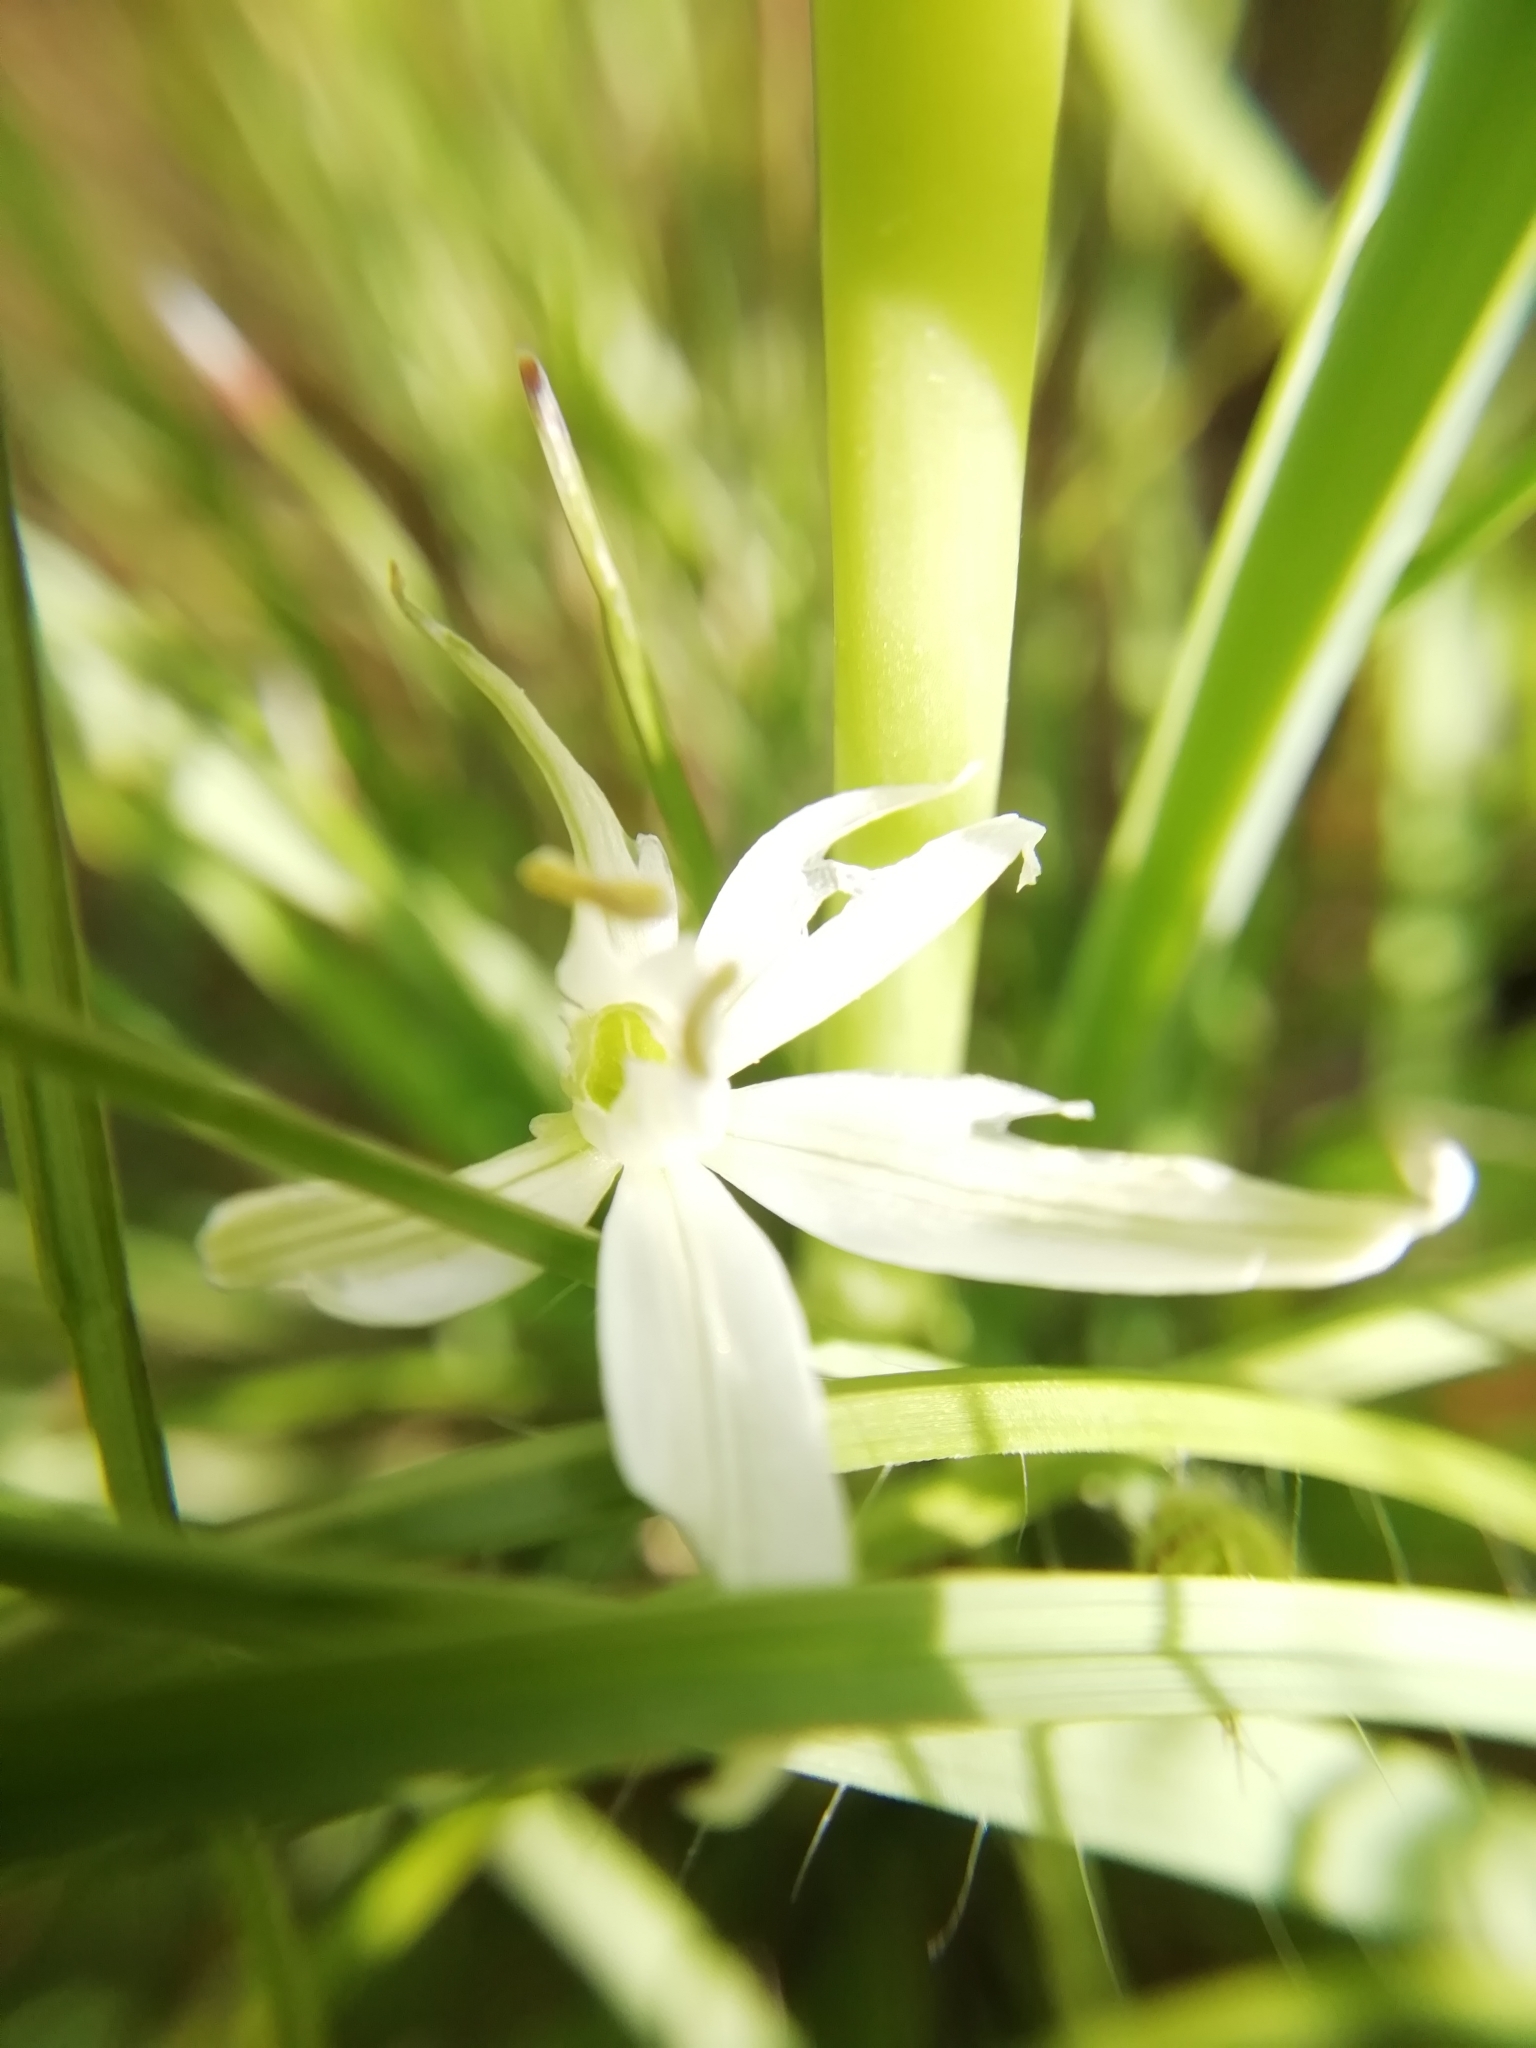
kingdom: Plantae
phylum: Tracheophyta
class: Liliopsida
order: Asparagales
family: Asparagaceae
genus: Ornithogalum
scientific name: Ornithogalum narbonense
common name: Bath-asparagus
